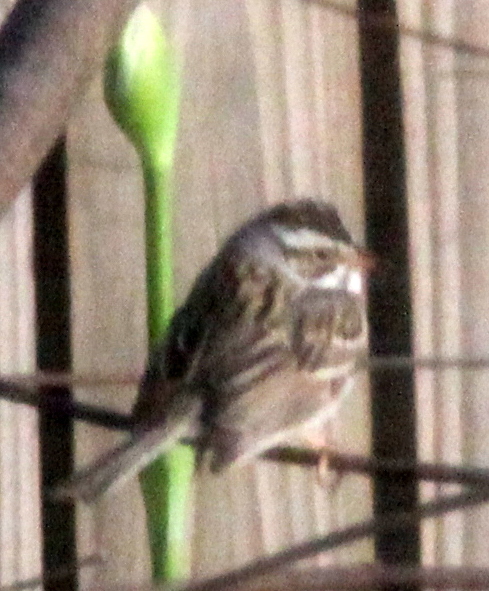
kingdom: Animalia
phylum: Chordata
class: Aves
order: Passeriformes
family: Passerellidae
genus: Spizella
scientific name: Spizella pallida
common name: Clay-colored sparrow
